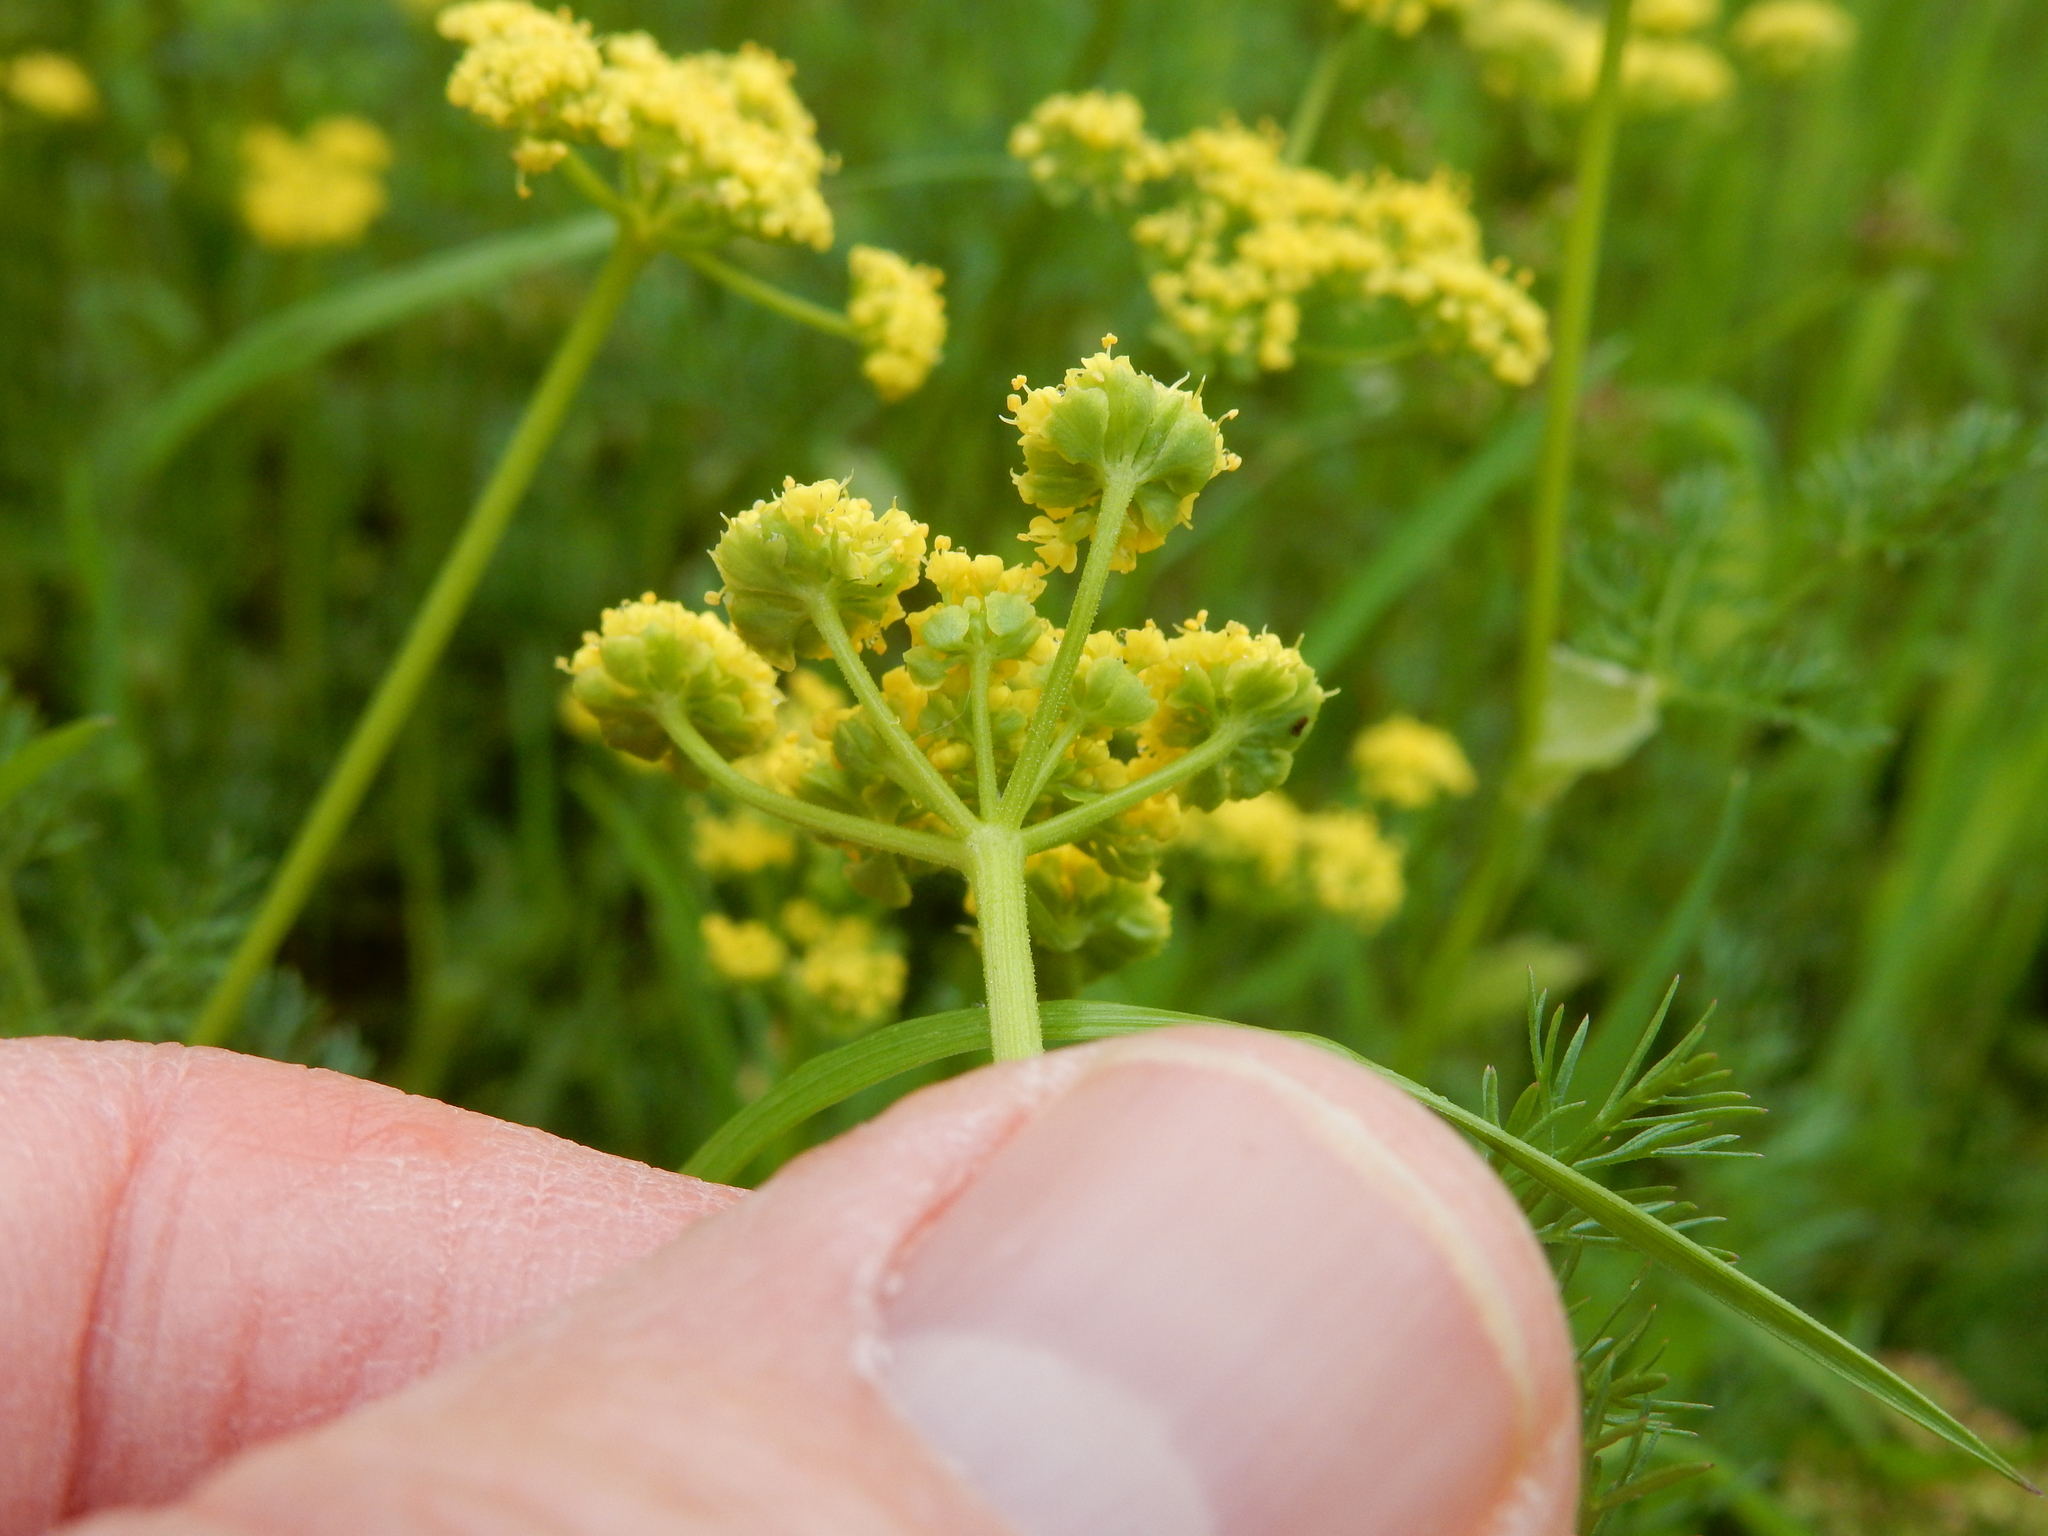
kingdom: Plantae
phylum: Tracheophyta
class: Magnoliopsida
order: Apiales
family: Apiaceae
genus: Lomatium
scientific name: Lomatium utriculatum
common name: Fine-leaf desert-parsley
